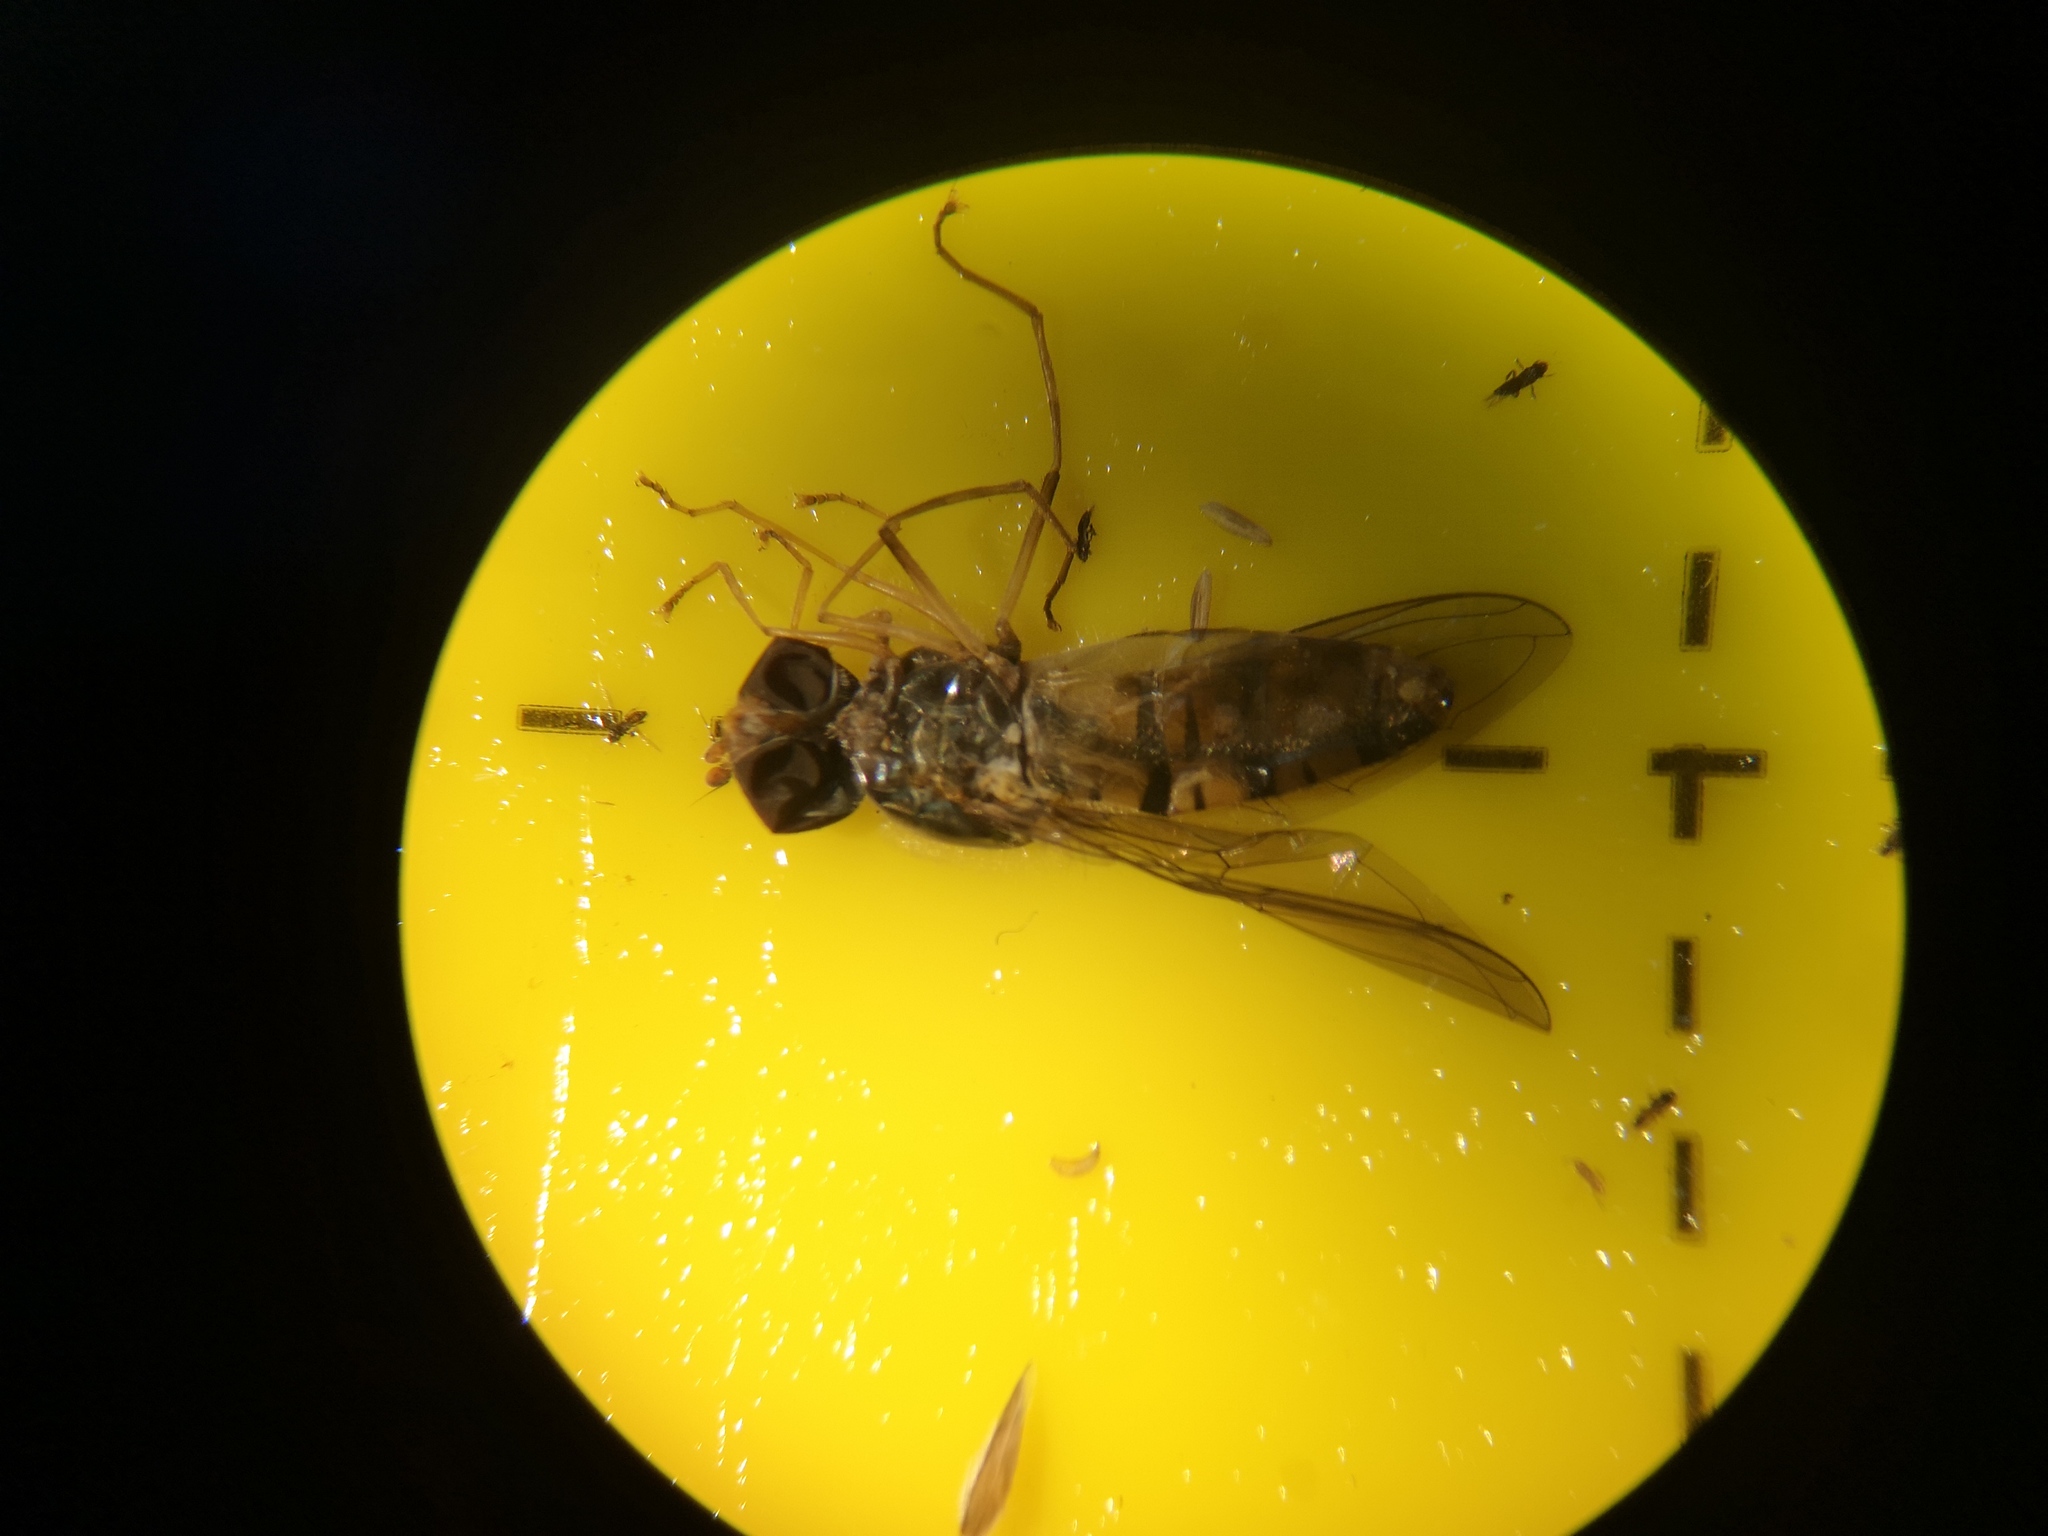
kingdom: Animalia
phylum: Arthropoda
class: Insecta
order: Diptera
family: Syrphidae
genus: Episyrphus
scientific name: Episyrphus balteatus
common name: Marmalade hoverfly
